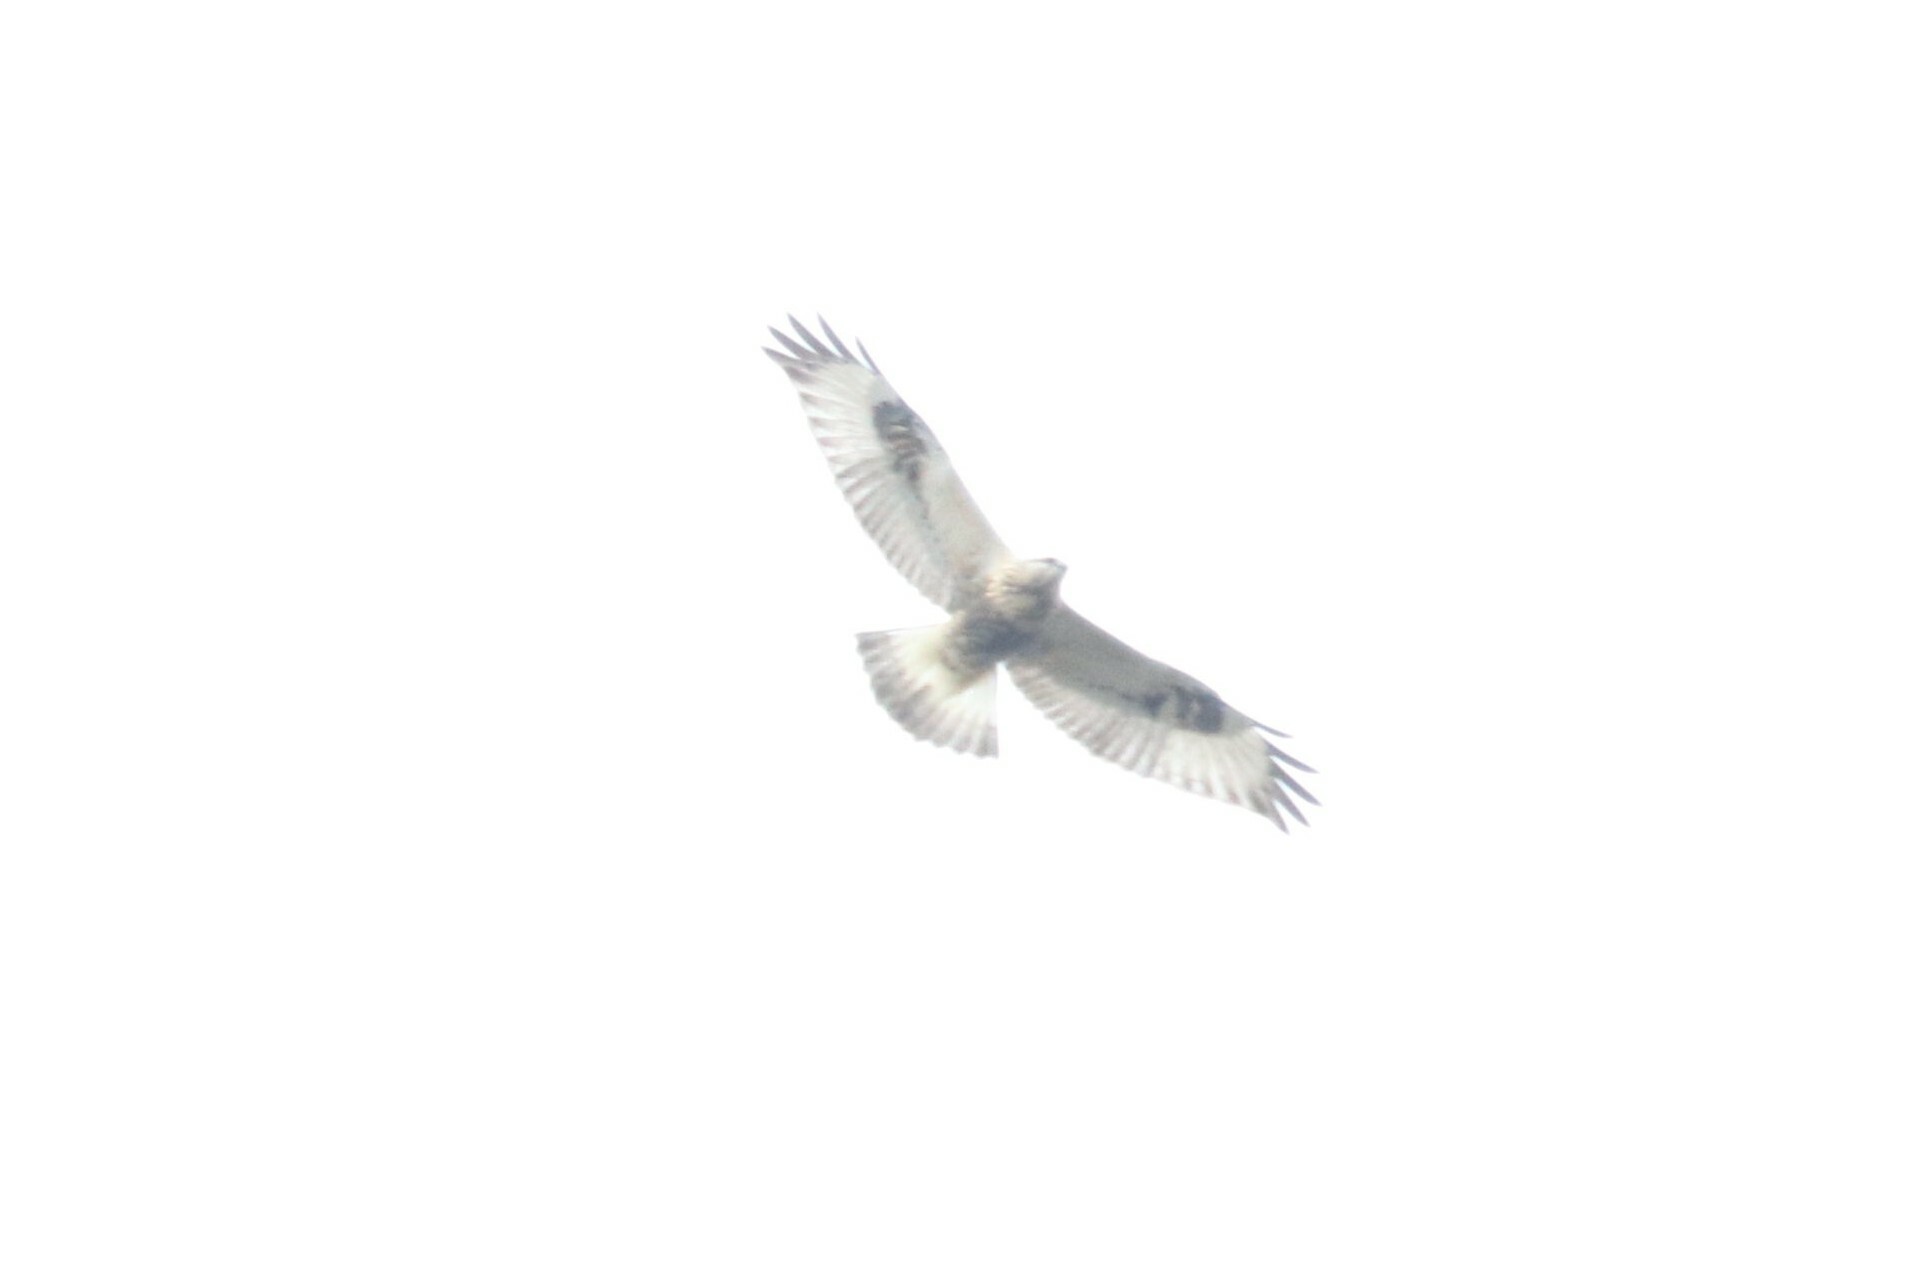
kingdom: Animalia
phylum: Chordata
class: Aves
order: Accipitriformes
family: Accipitridae
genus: Buteo
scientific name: Buteo lagopus
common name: Rough-legged buzzard
